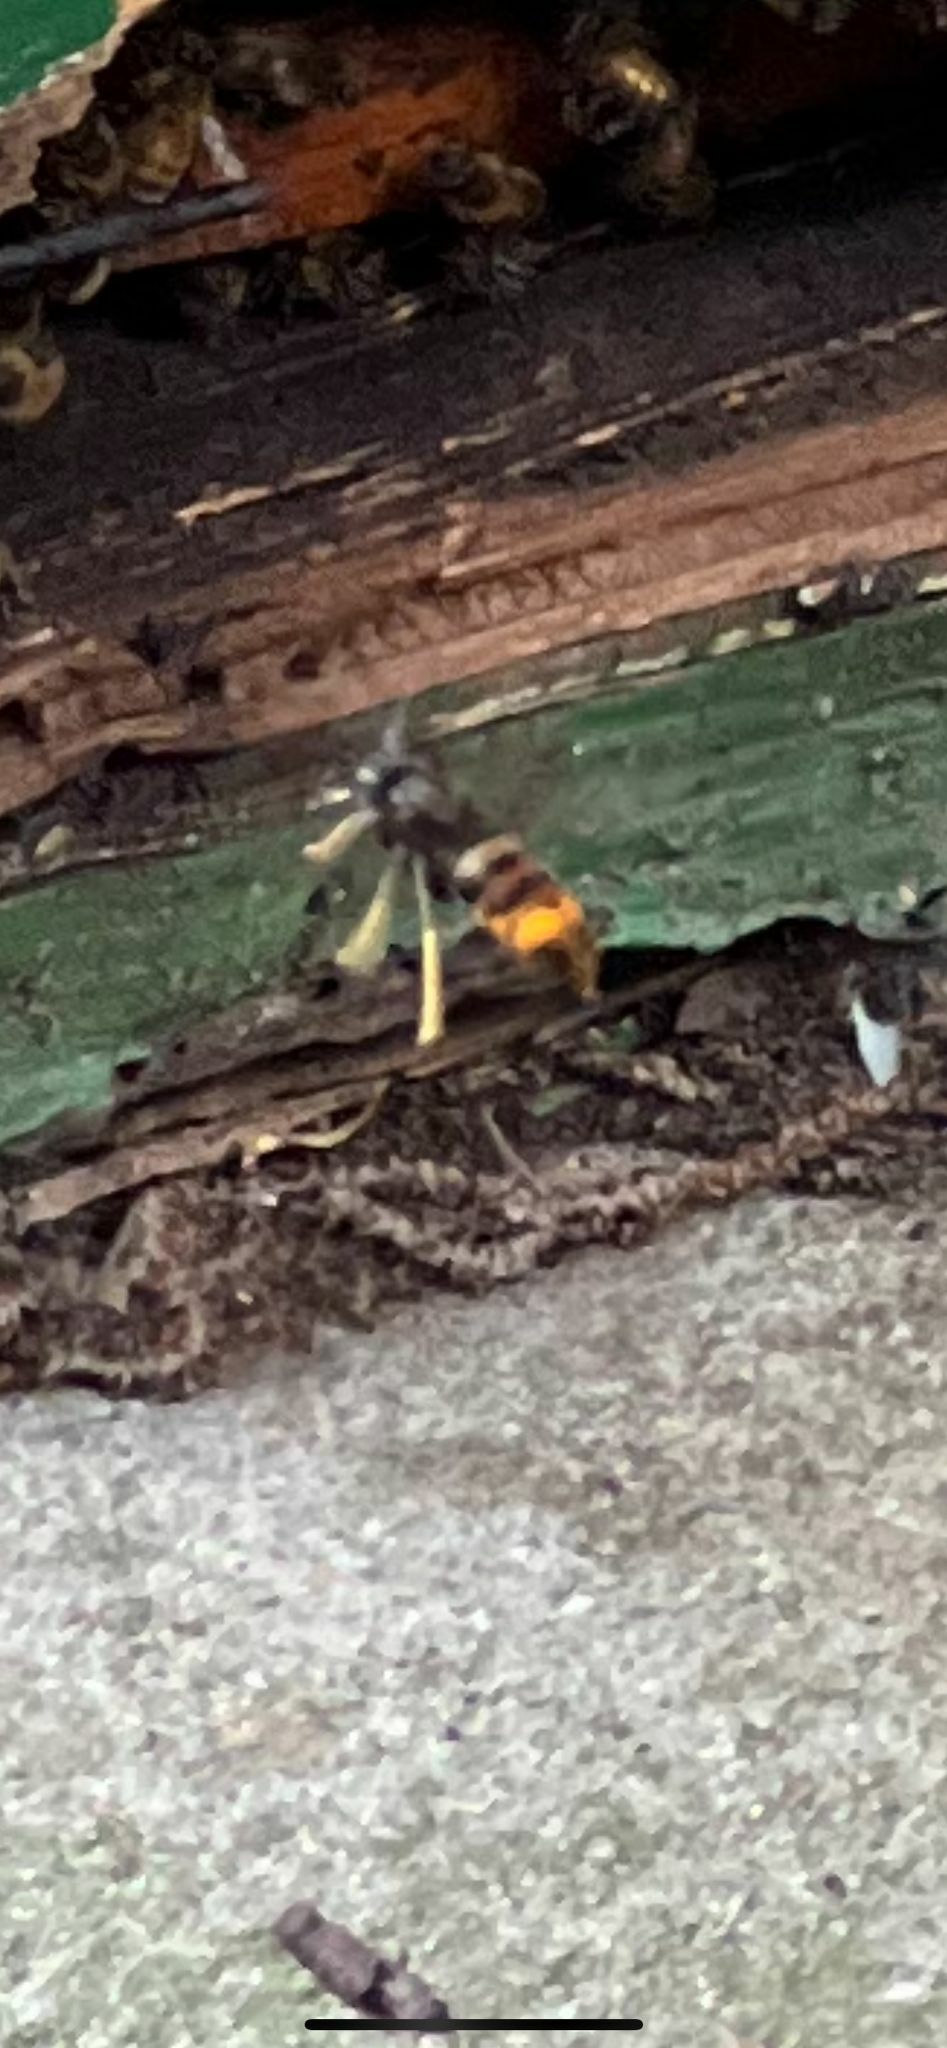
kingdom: Animalia
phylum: Arthropoda
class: Insecta
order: Hymenoptera
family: Vespidae
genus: Vespa
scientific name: Vespa velutina
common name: Asian hornet
